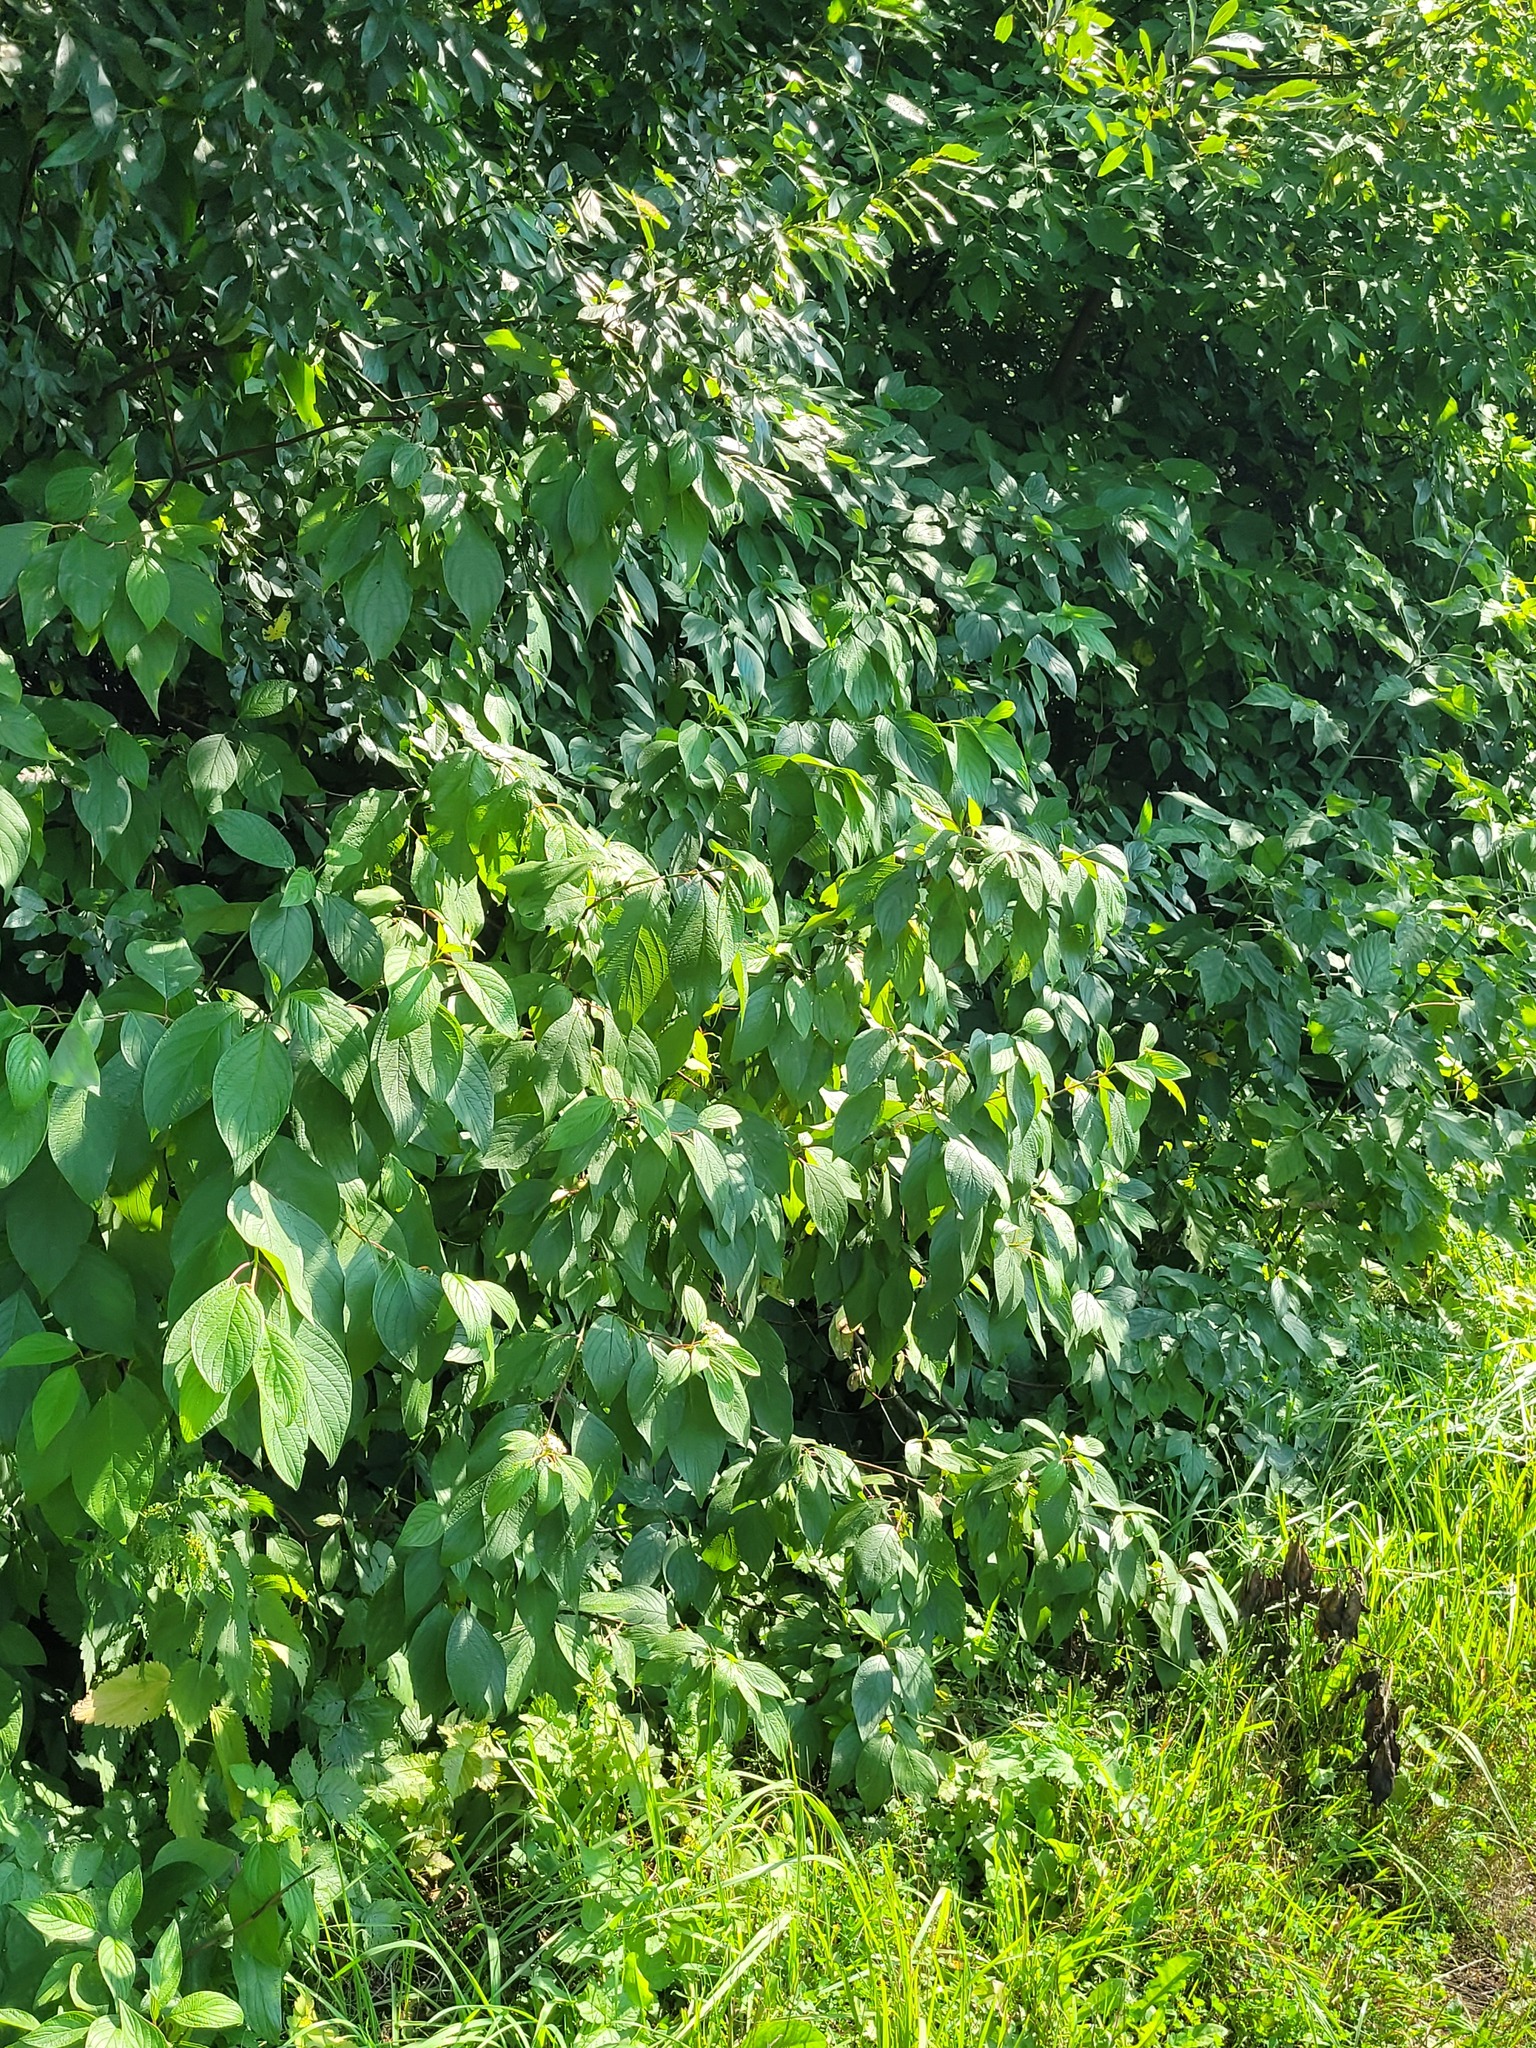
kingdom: Plantae
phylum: Tracheophyta
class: Magnoliopsida
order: Cornales
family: Cornaceae
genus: Cornus
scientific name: Cornus alba
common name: White dogwood
